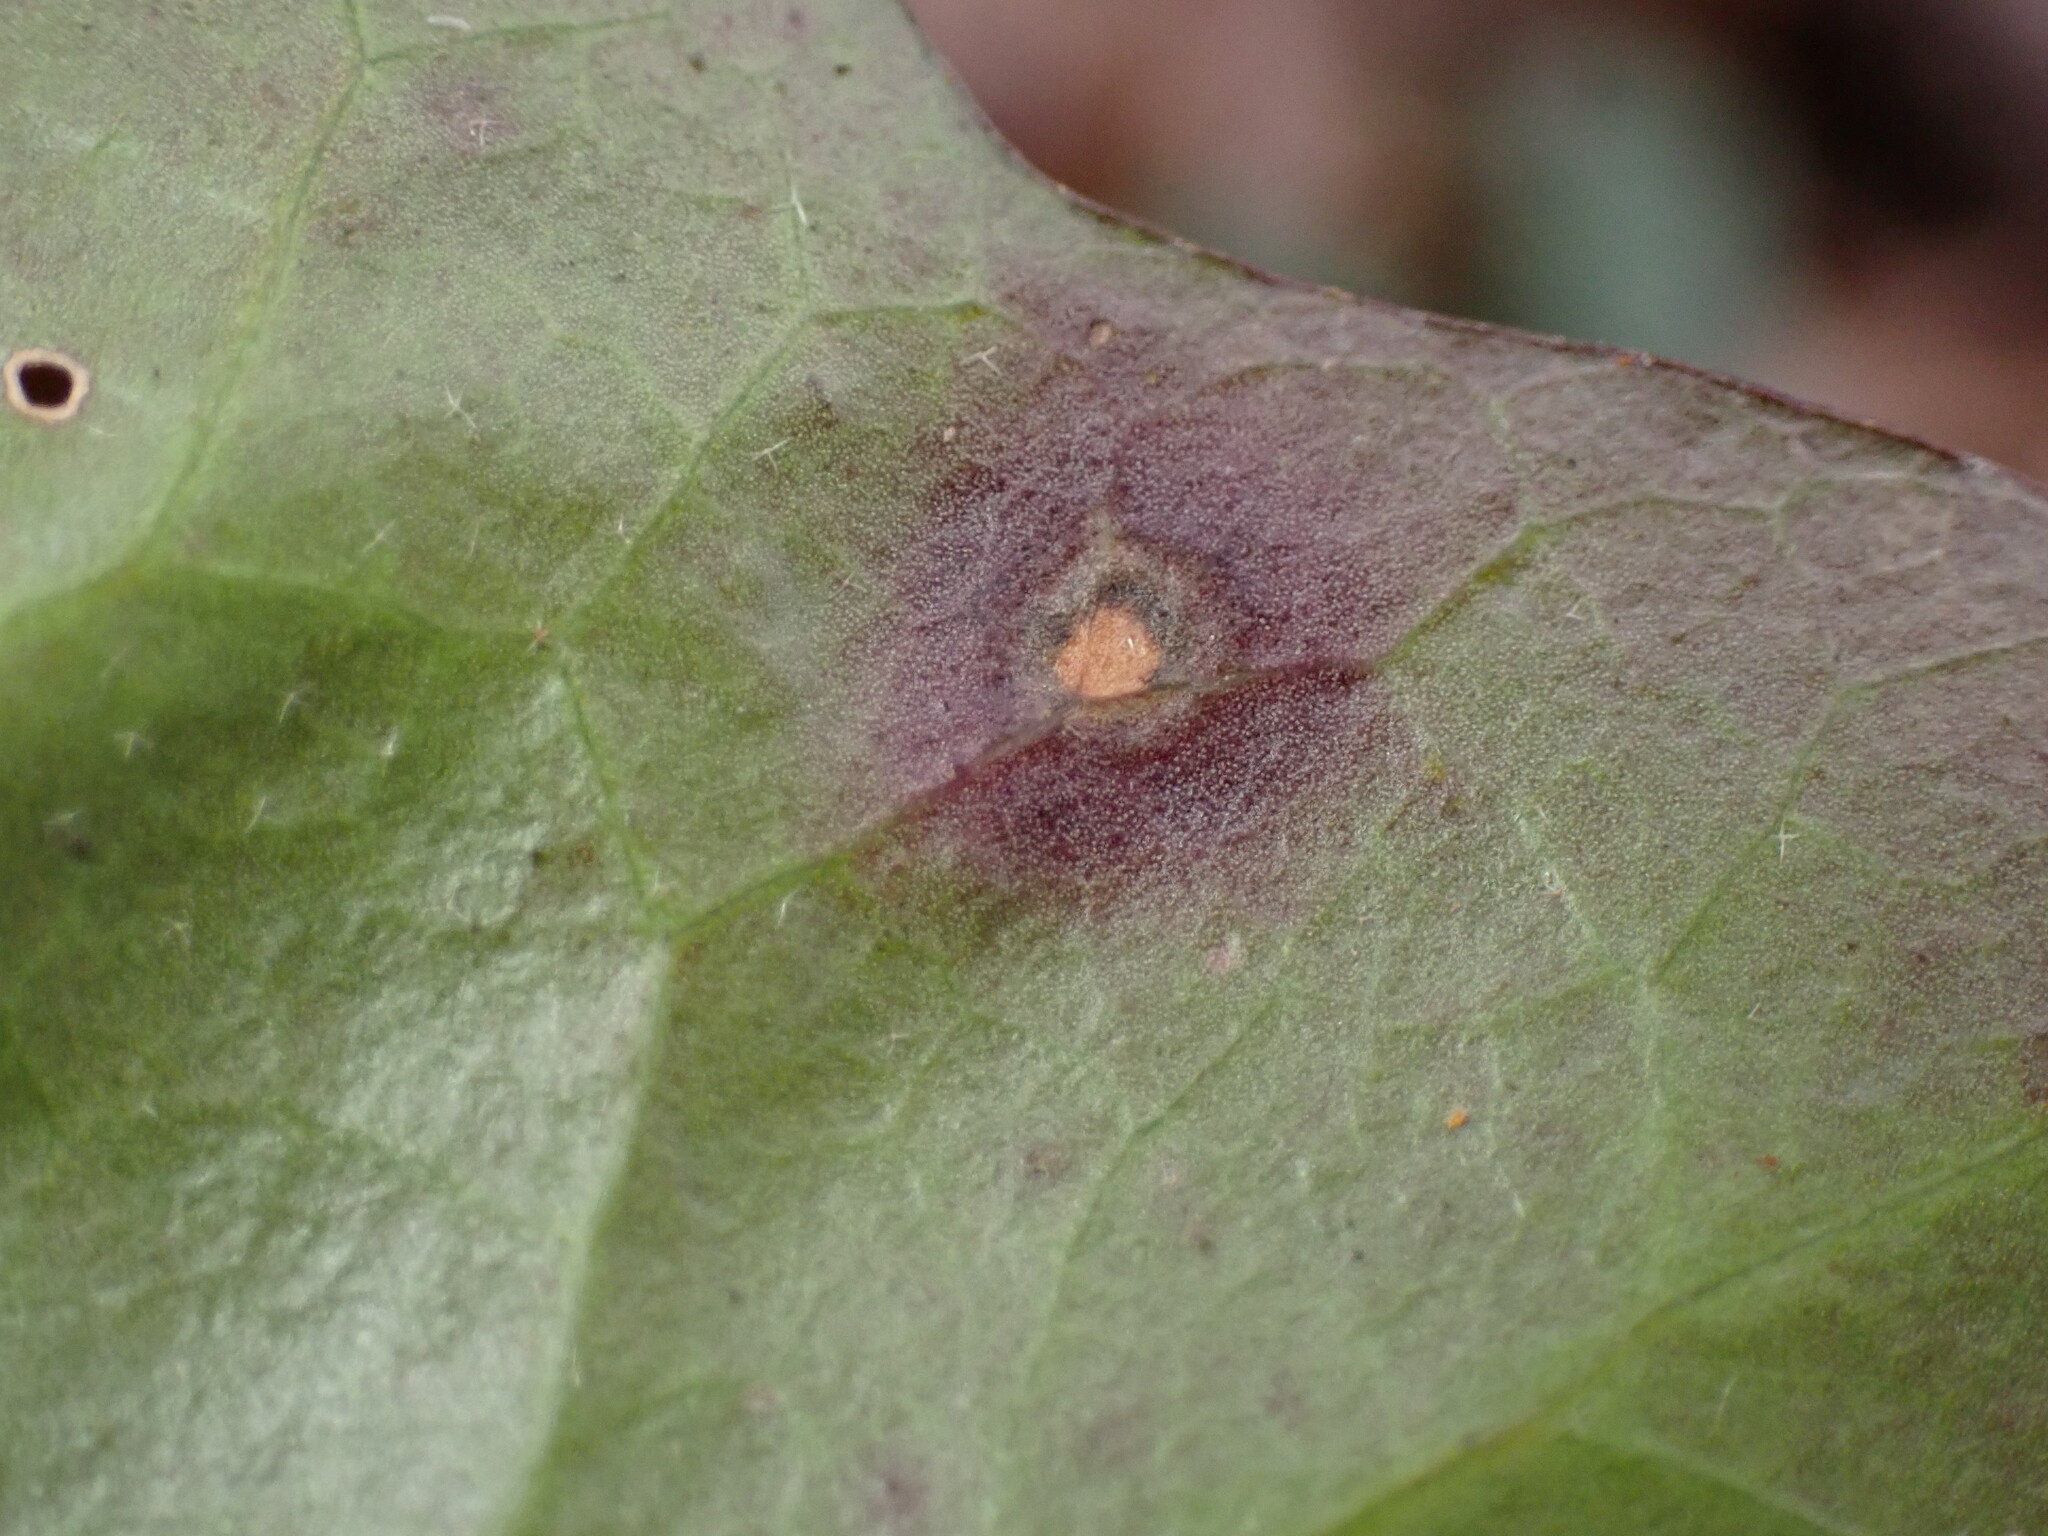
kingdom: Fungi
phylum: Ascomycota
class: Dothideomycetes
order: Pleosporales
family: Didymellaceae
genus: Boeremia
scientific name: Boeremia hedericola
